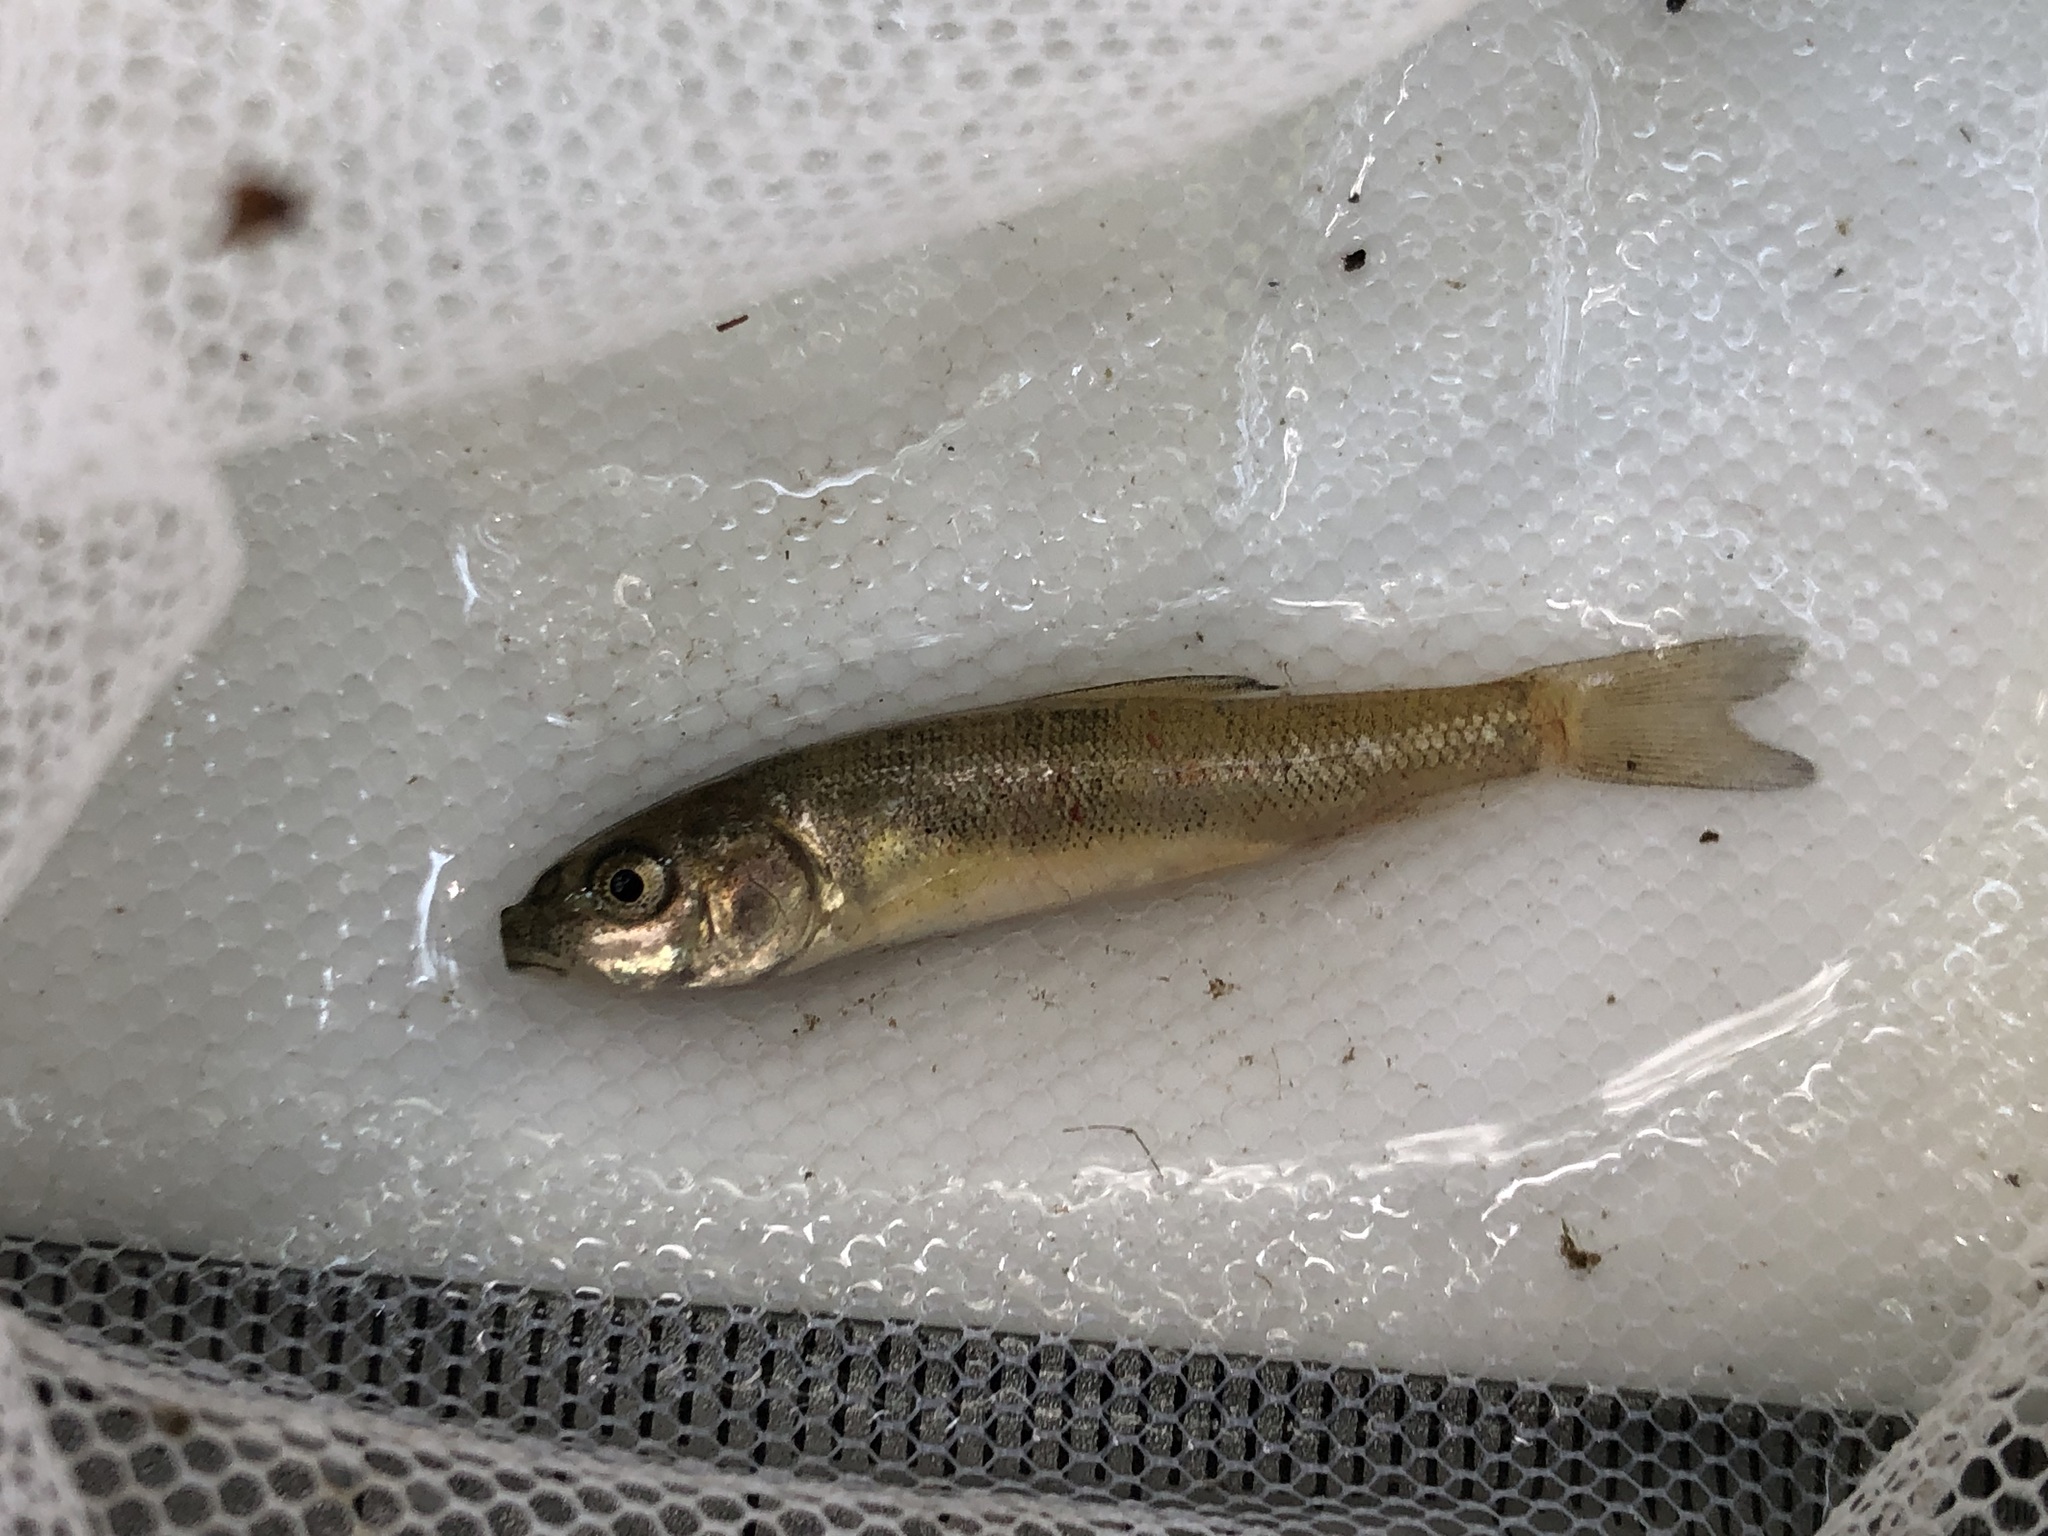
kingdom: Animalia
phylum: Chordata
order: Cypriniformes
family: Catostomidae
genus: Catostomus
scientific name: Catostomus commersonii
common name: White sucker
